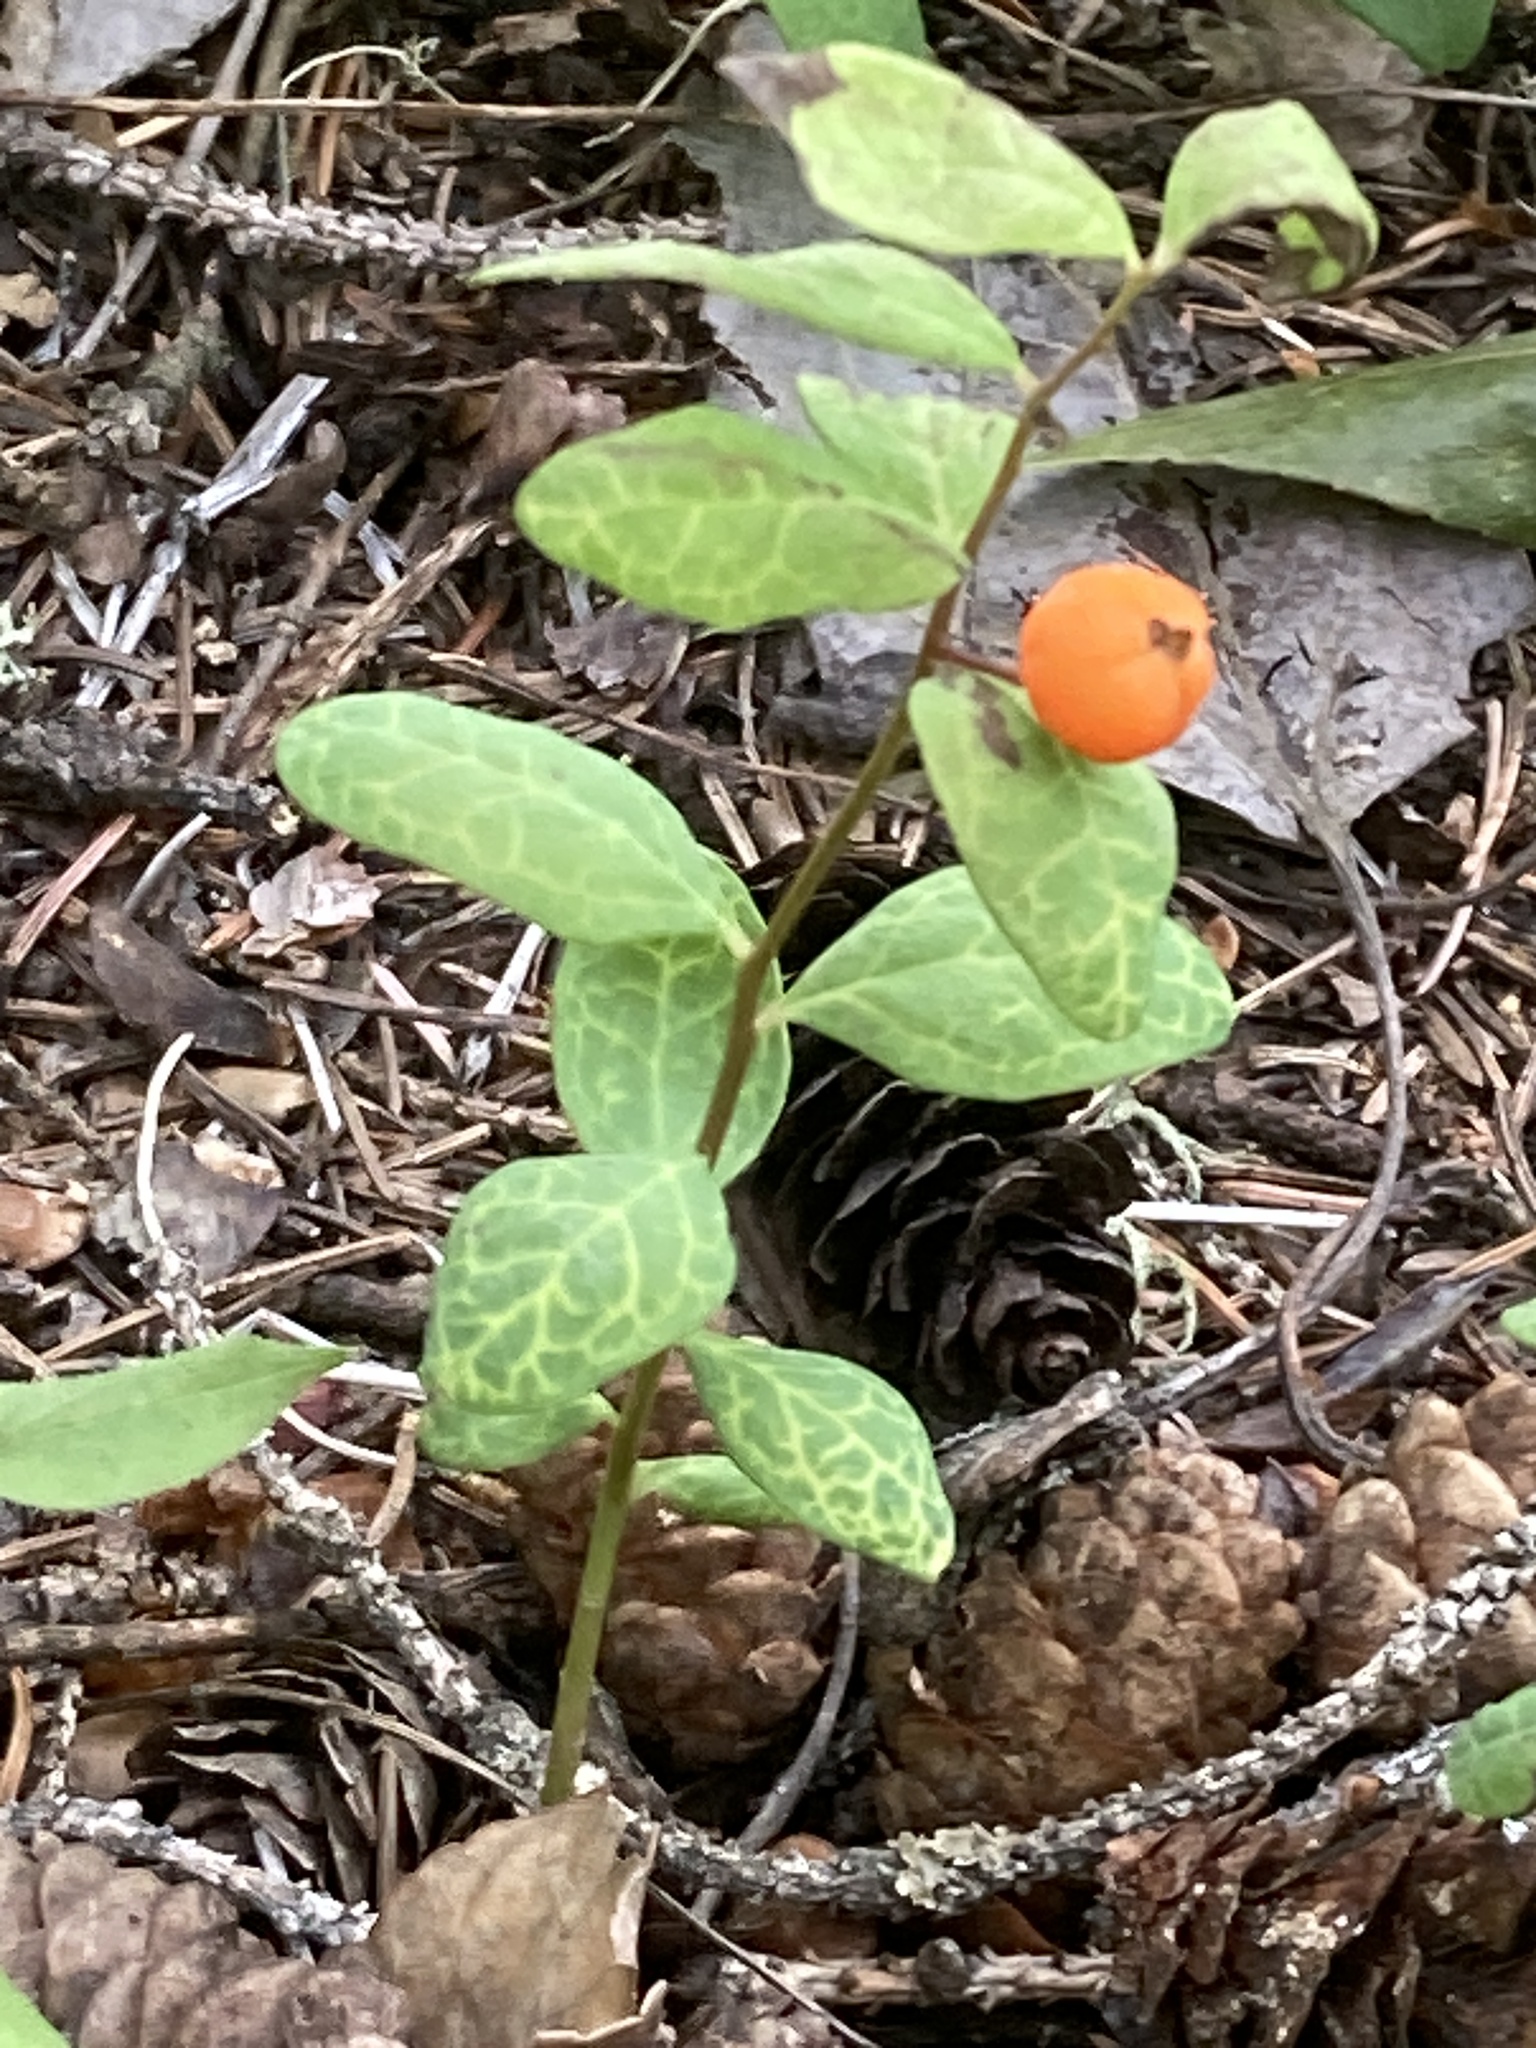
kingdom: Plantae
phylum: Tracheophyta
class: Magnoliopsida
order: Santalales
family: Comandraceae
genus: Geocaulon
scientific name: Geocaulon lividum
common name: Earthberry
